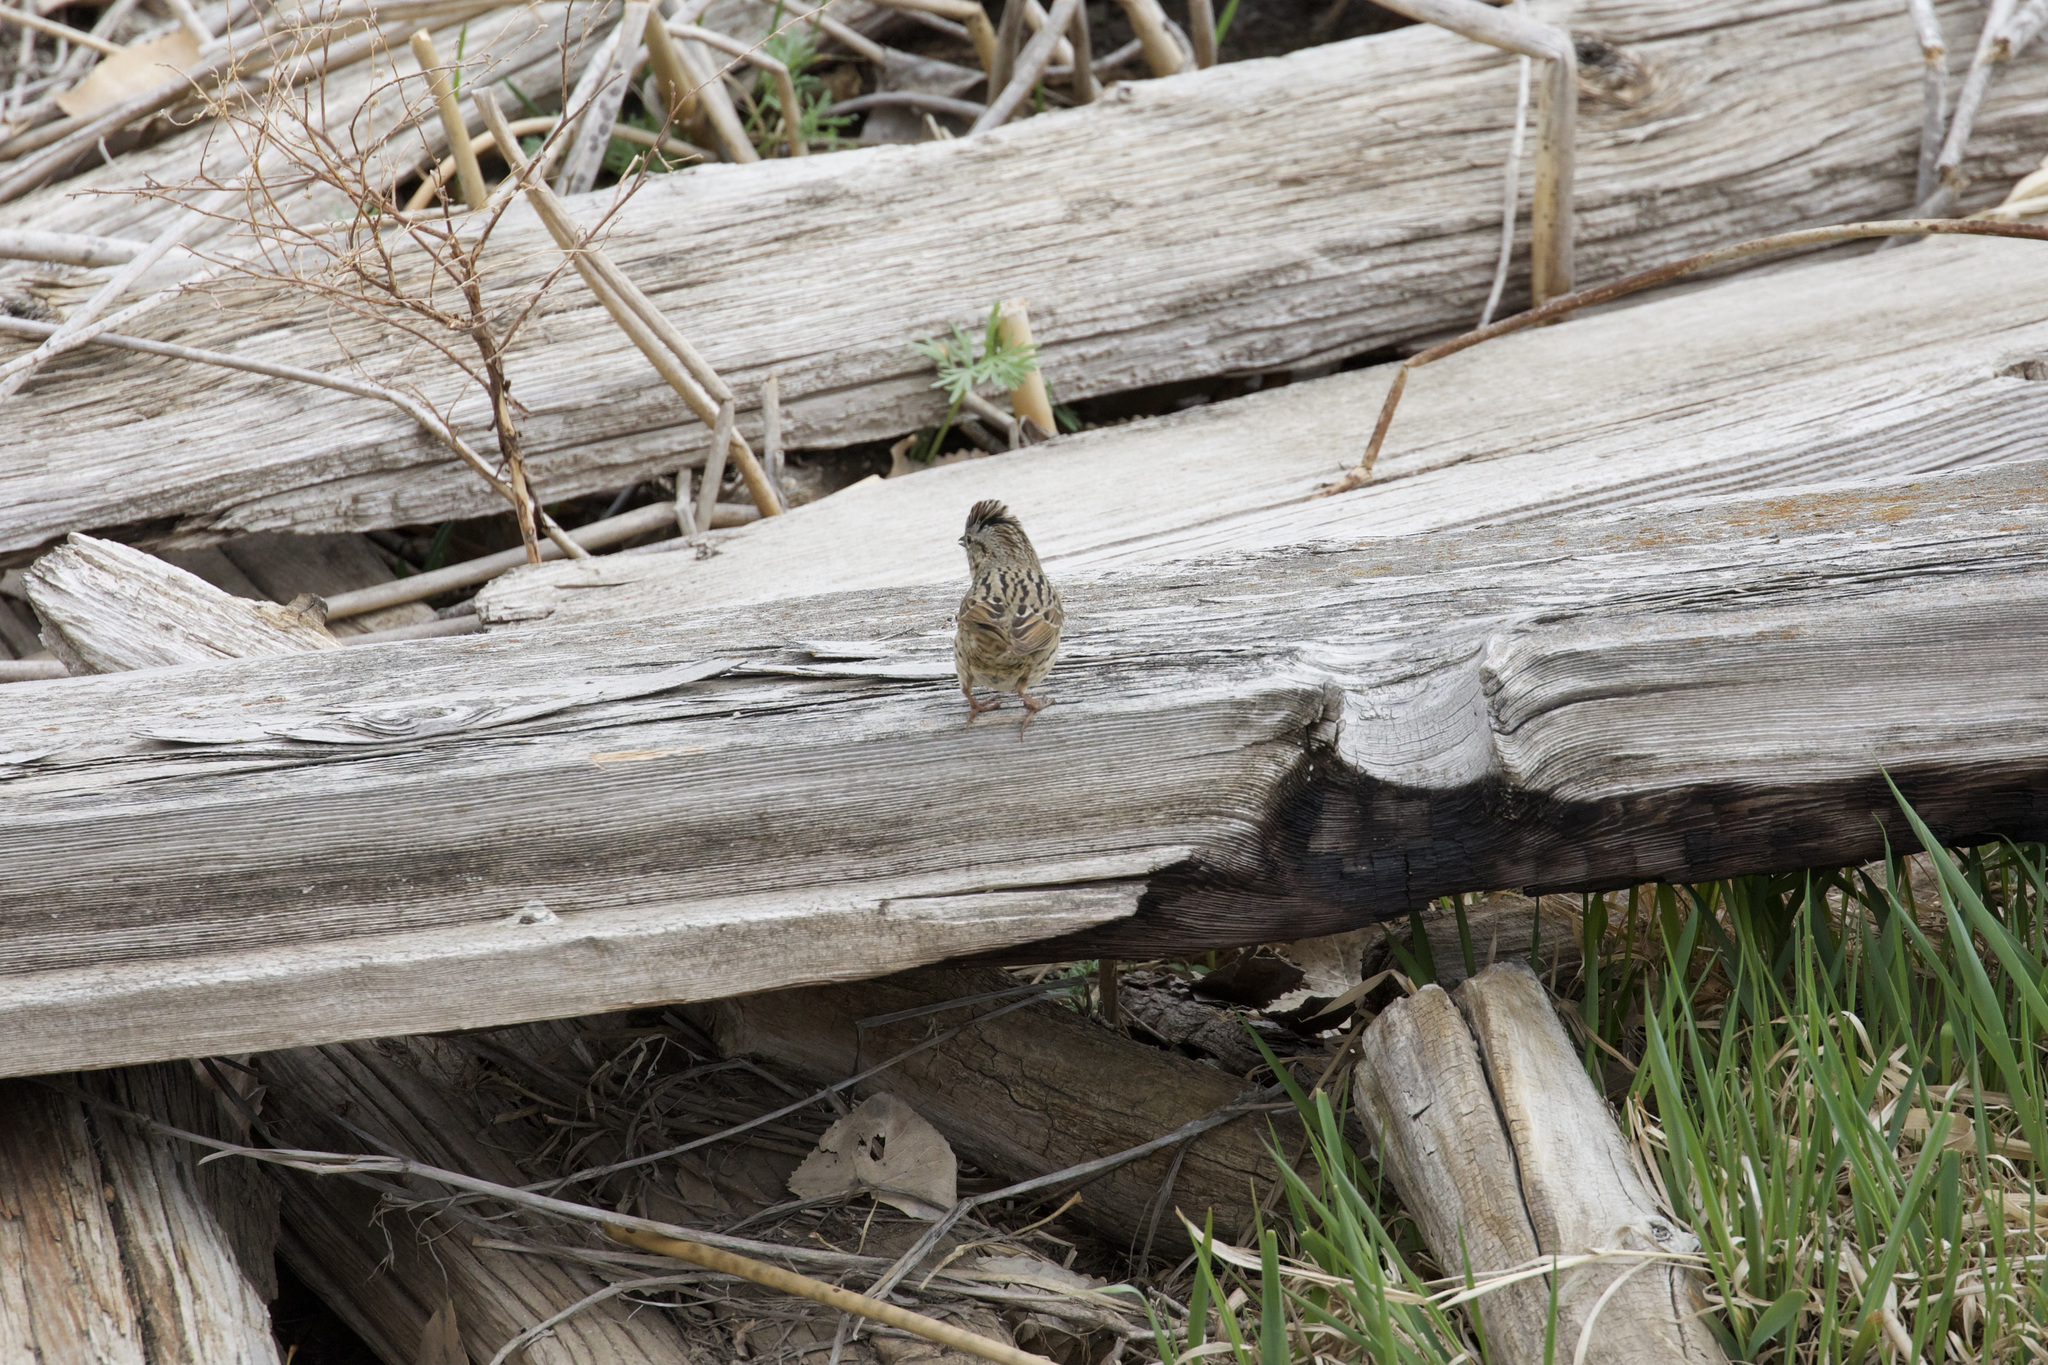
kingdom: Animalia
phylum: Chordata
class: Aves
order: Passeriformes
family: Passerellidae
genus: Melospiza
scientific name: Melospiza lincolnii
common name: Lincoln's sparrow
